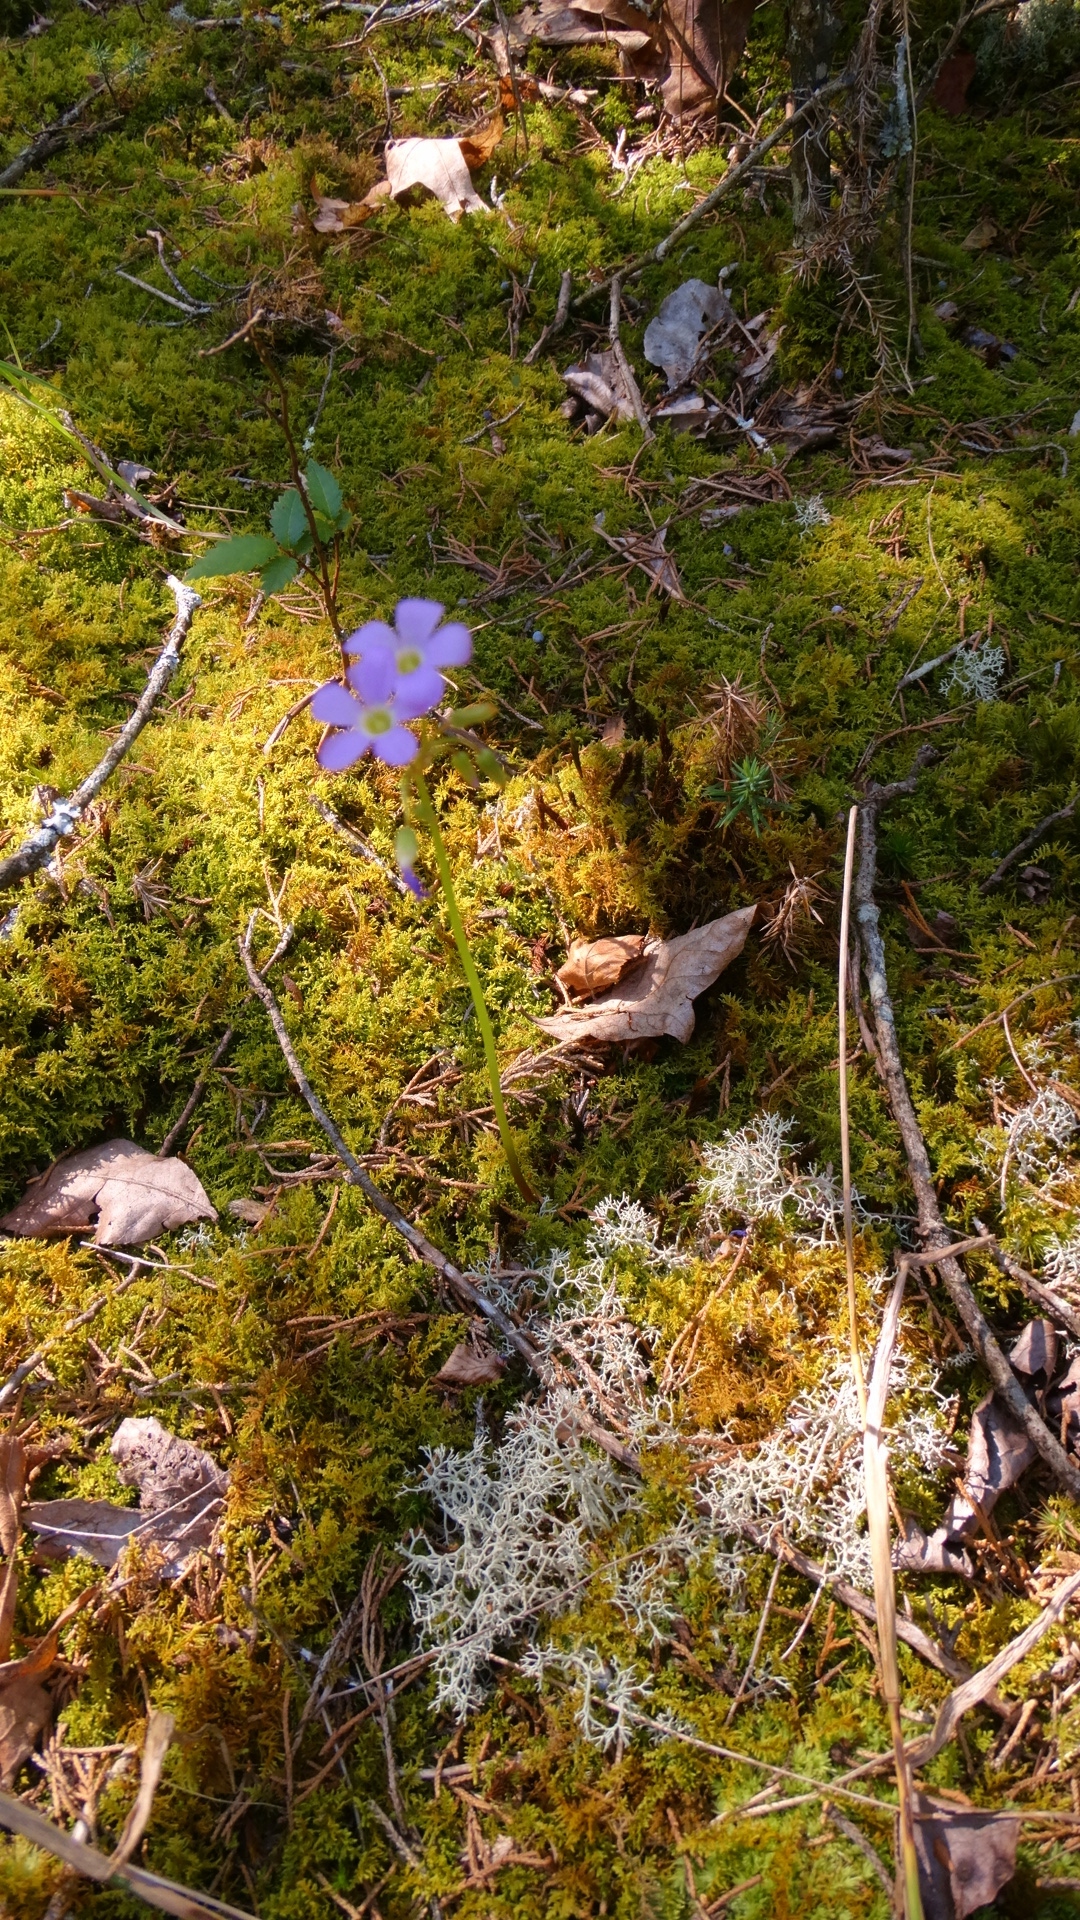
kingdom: Plantae
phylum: Tracheophyta
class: Magnoliopsida
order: Oxalidales
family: Oxalidaceae
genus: Oxalis
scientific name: Oxalis violacea
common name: Violet wood-sorrel
